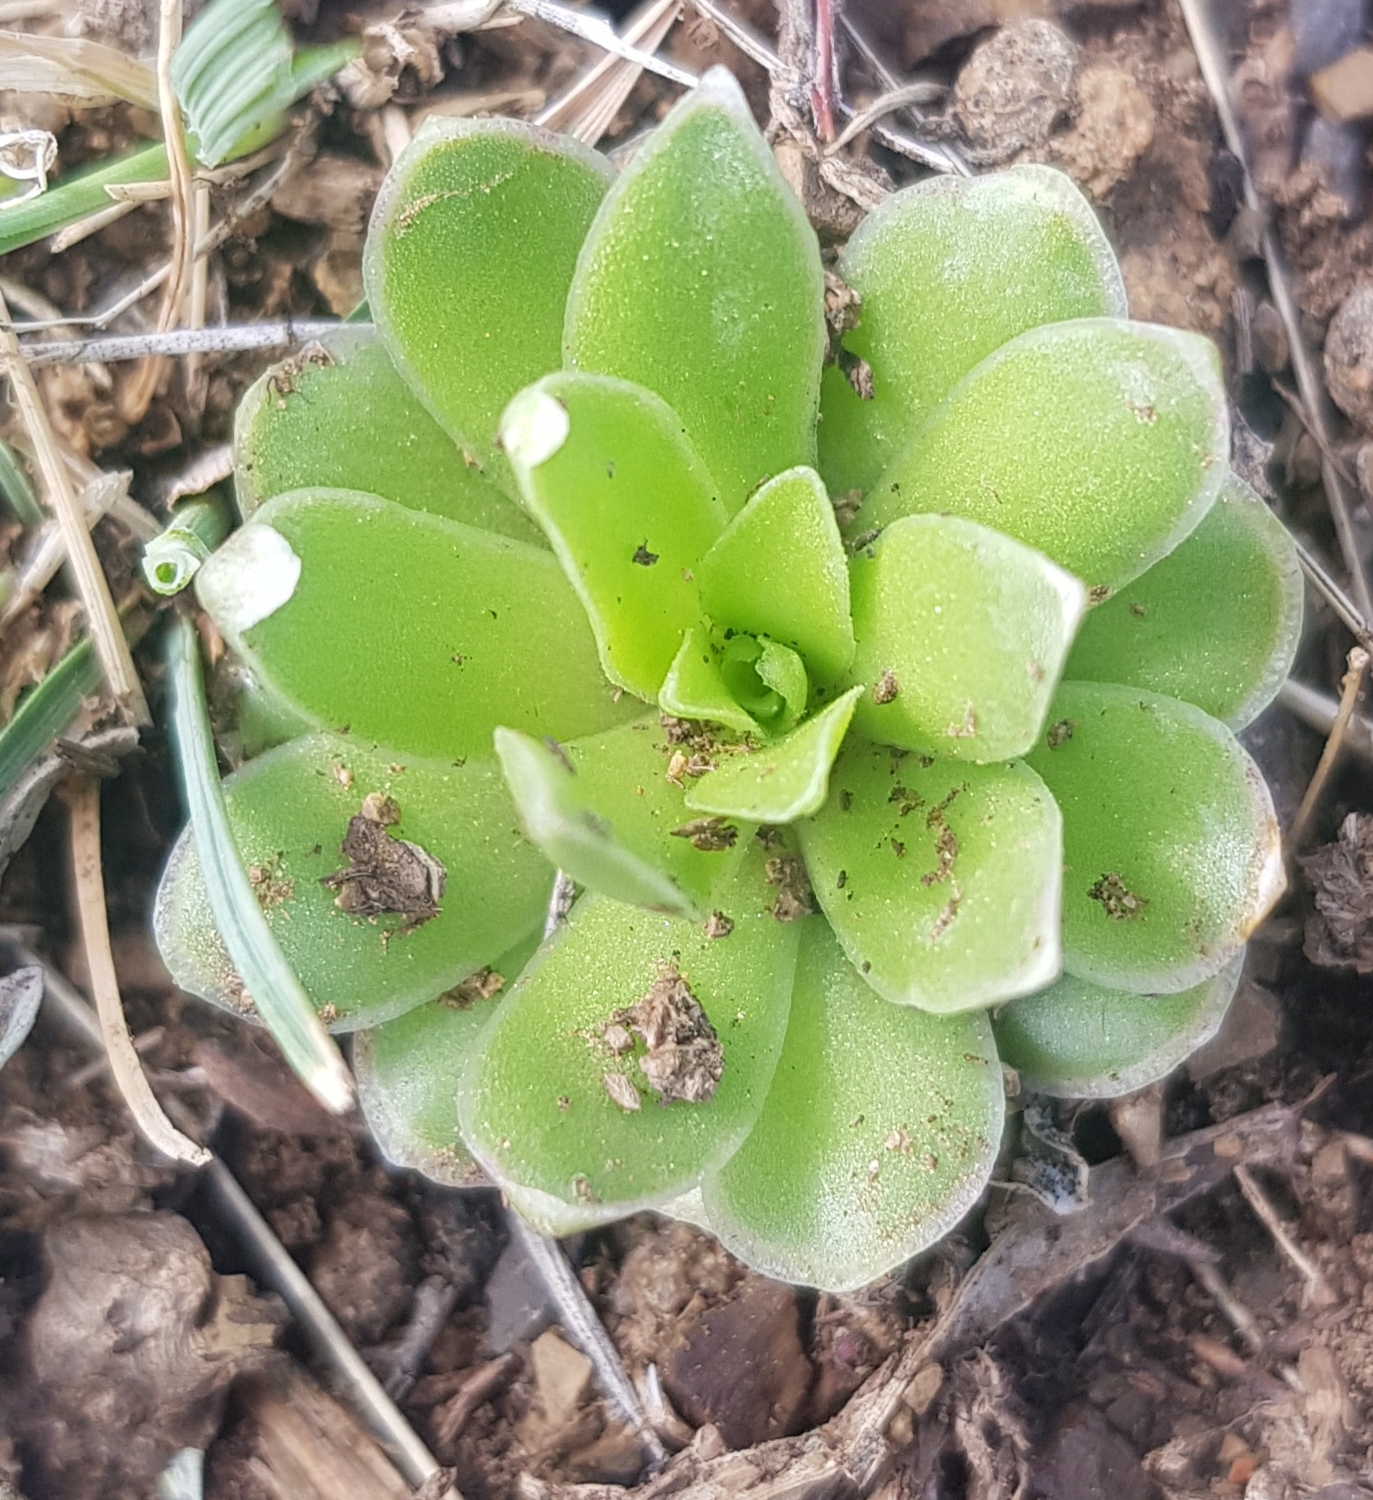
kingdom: Plantae
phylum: Tracheophyta
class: Magnoliopsida
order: Saxifragales
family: Crassulaceae
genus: Orostachys
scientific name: Orostachys malacophylla
